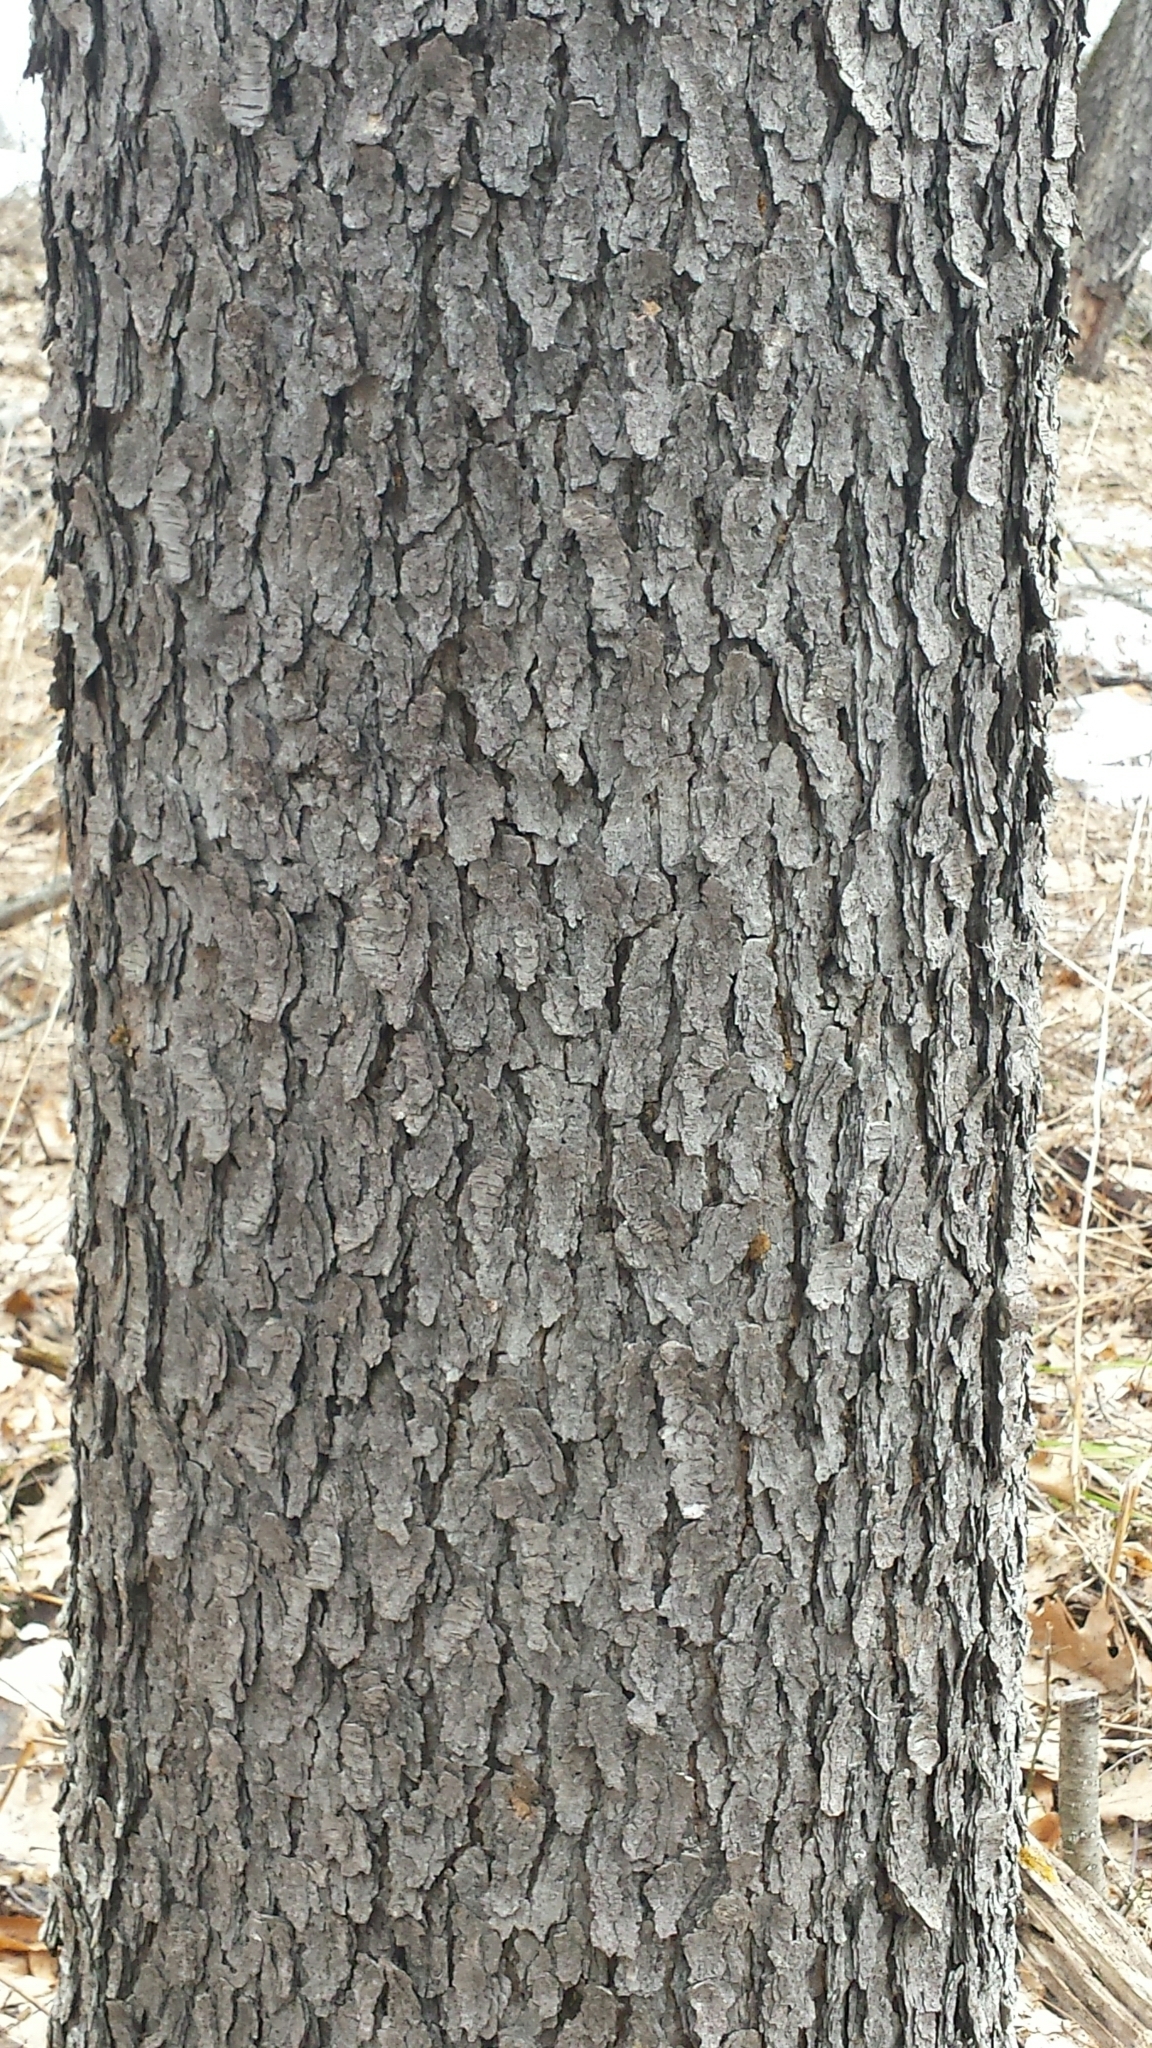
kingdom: Plantae
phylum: Tracheophyta
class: Magnoliopsida
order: Rosales
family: Rosaceae
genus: Prunus
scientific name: Prunus serotina
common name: Black cherry
